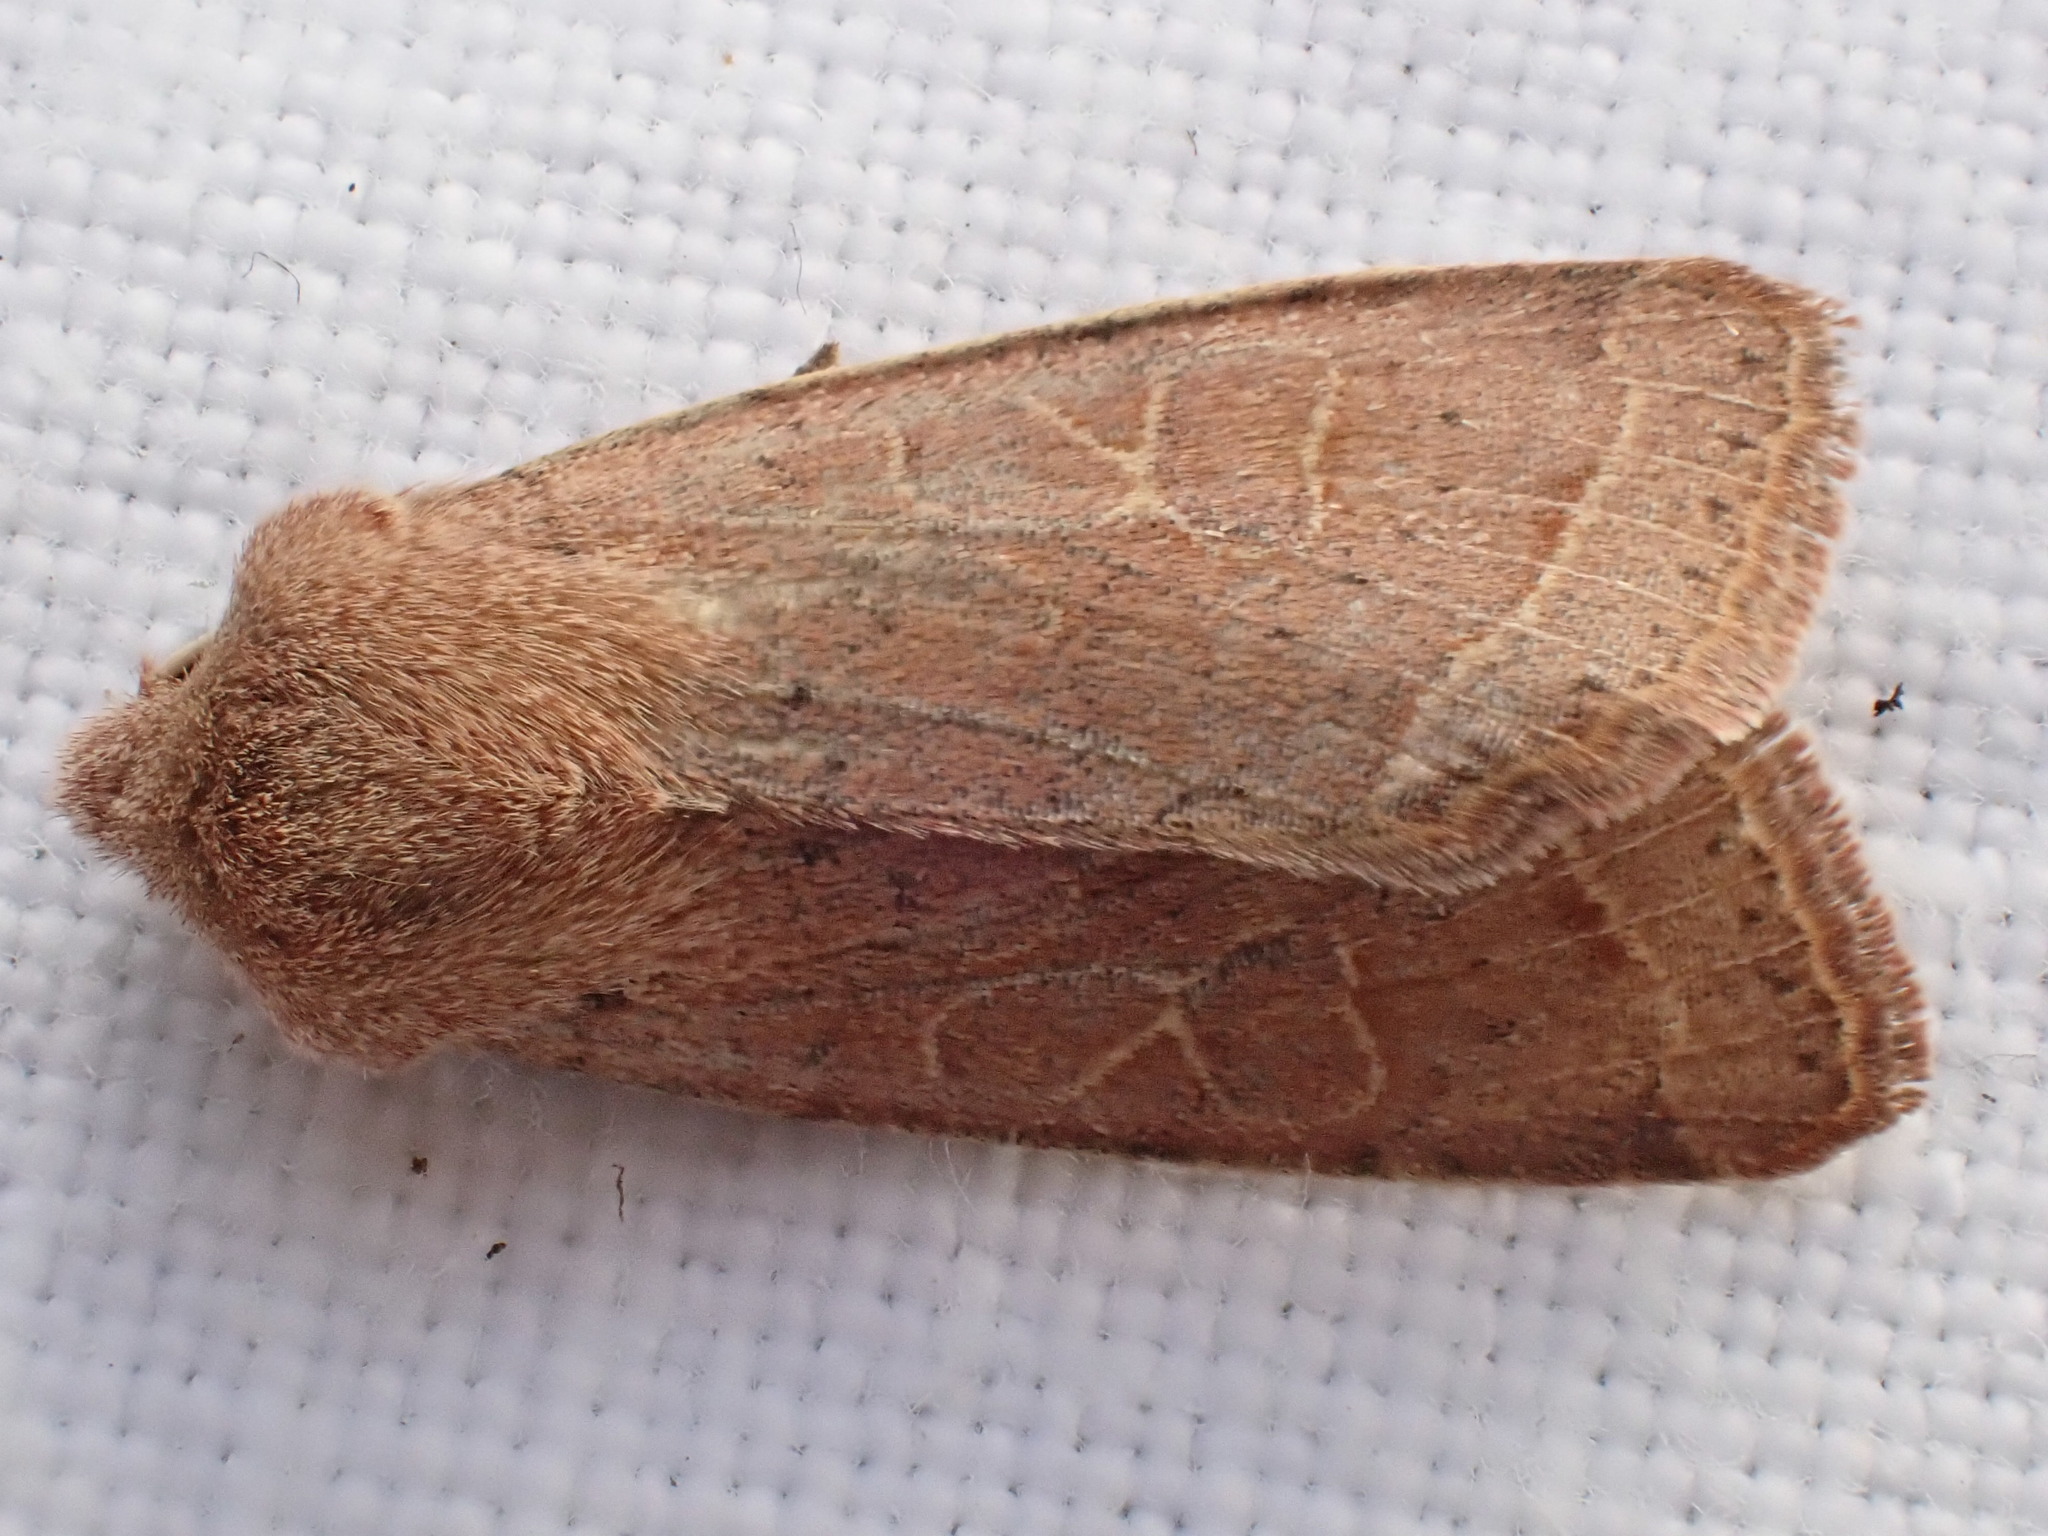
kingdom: Animalia
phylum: Arthropoda
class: Insecta
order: Lepidoptera
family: Noctuidae
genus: Orthosia
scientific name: Orthosia cerasi
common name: Common quaker
